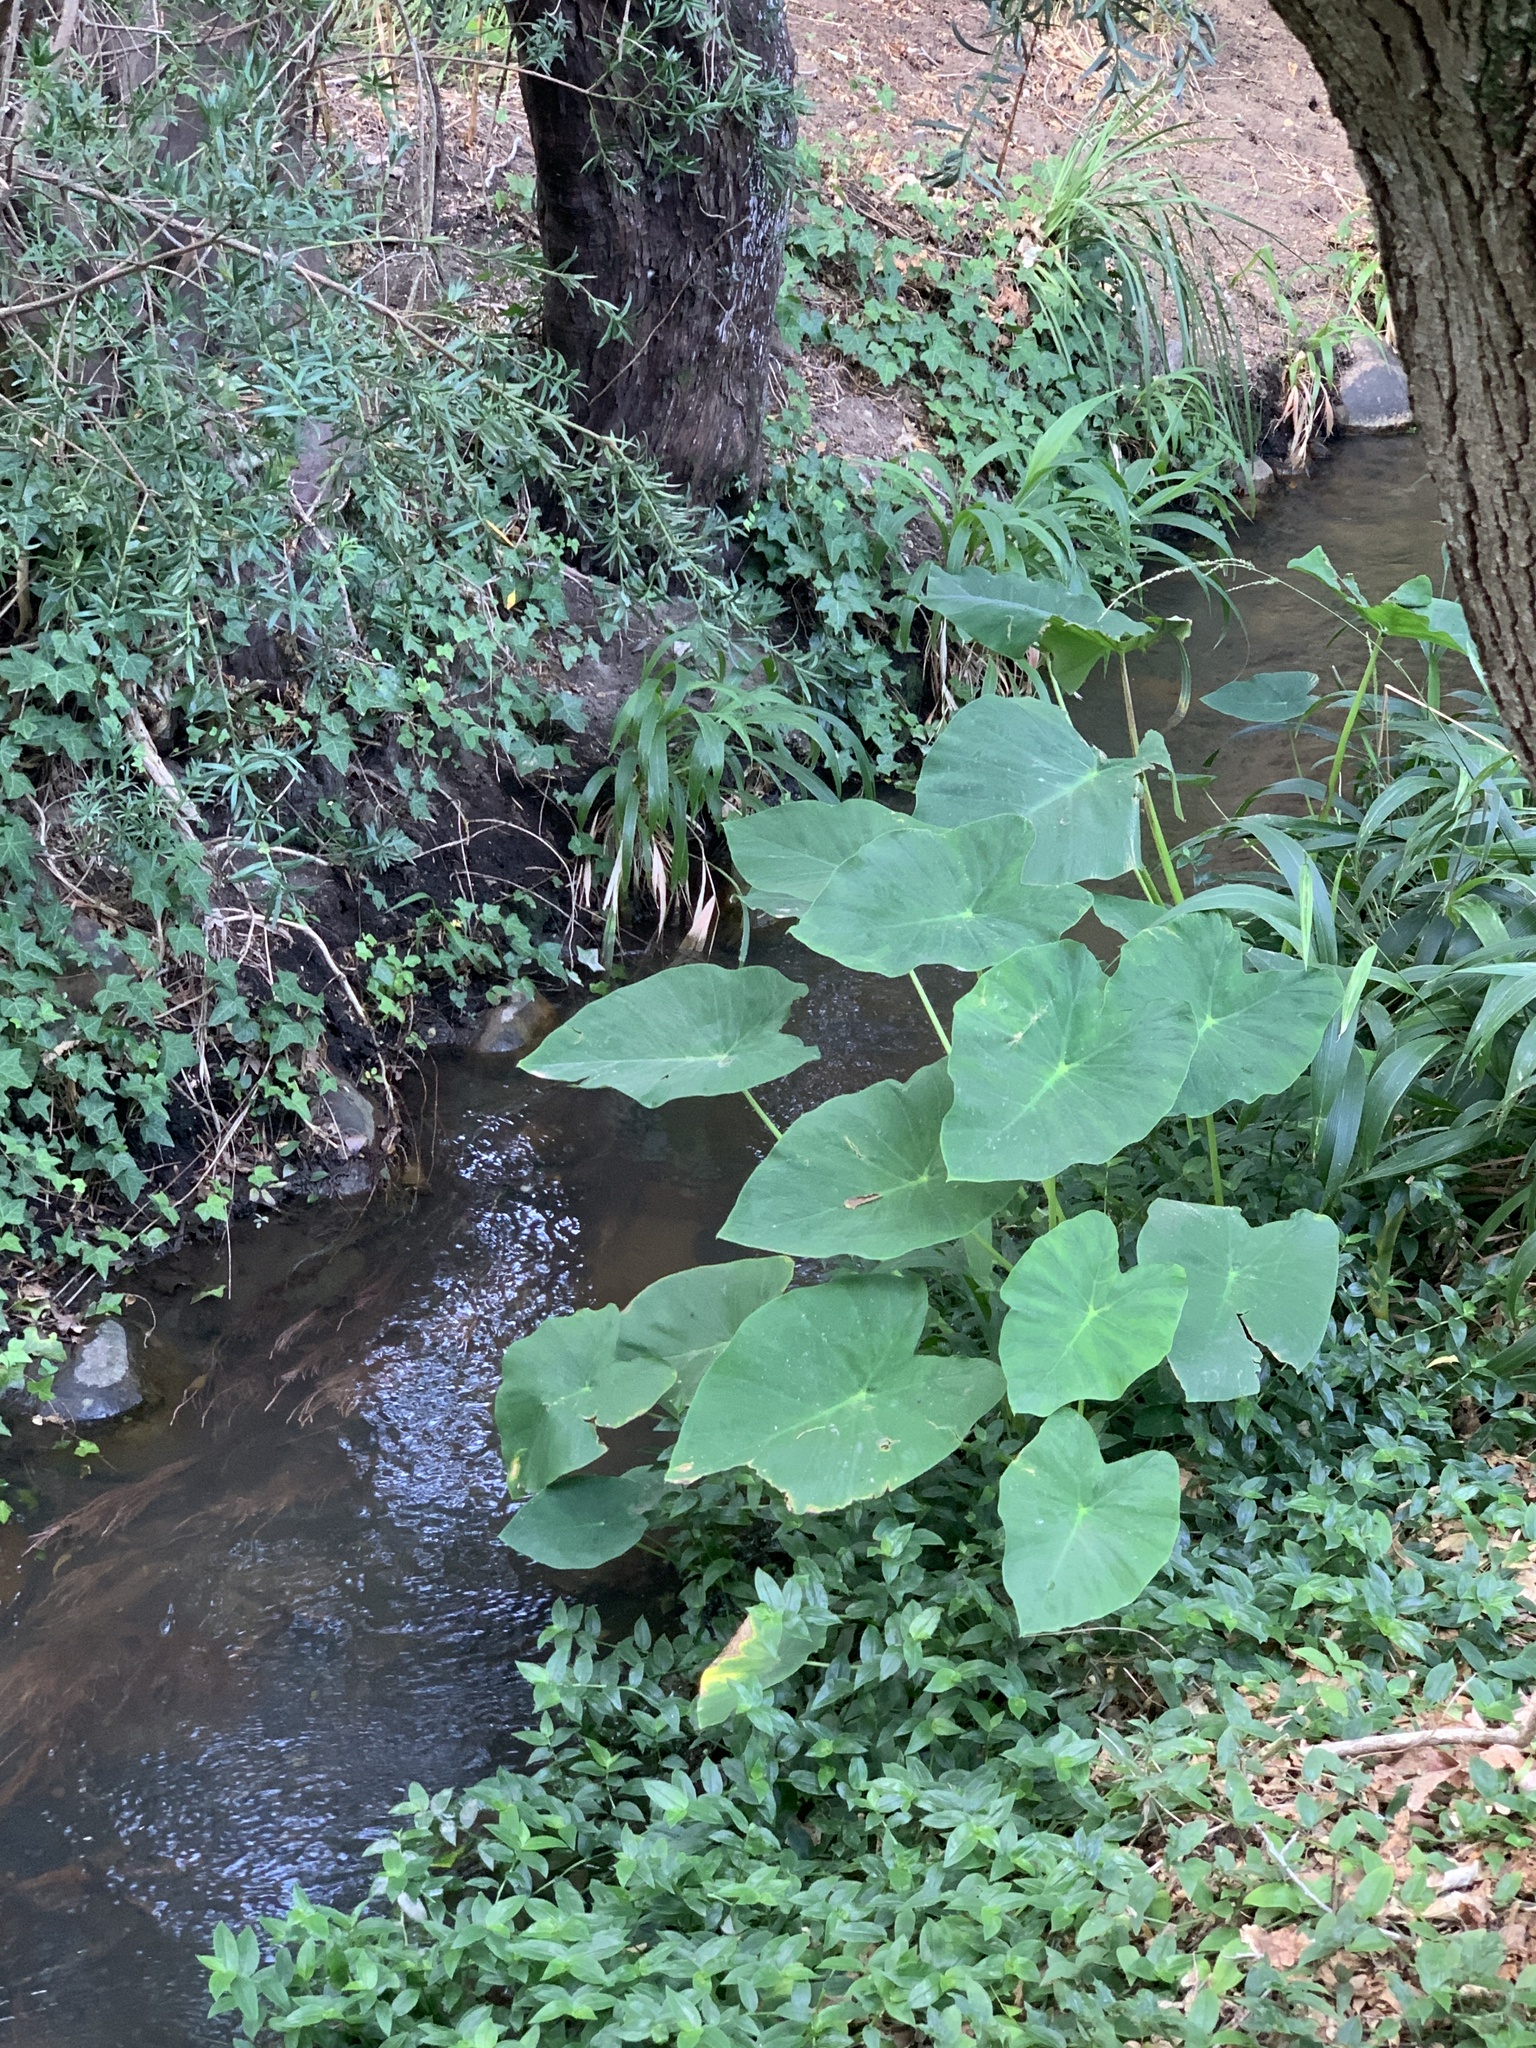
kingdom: Plantae
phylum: Tracheophyta
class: Liliopsida
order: Alismatales
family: Araceae
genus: Colocasia
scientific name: Colocasia esculenta
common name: Taro
